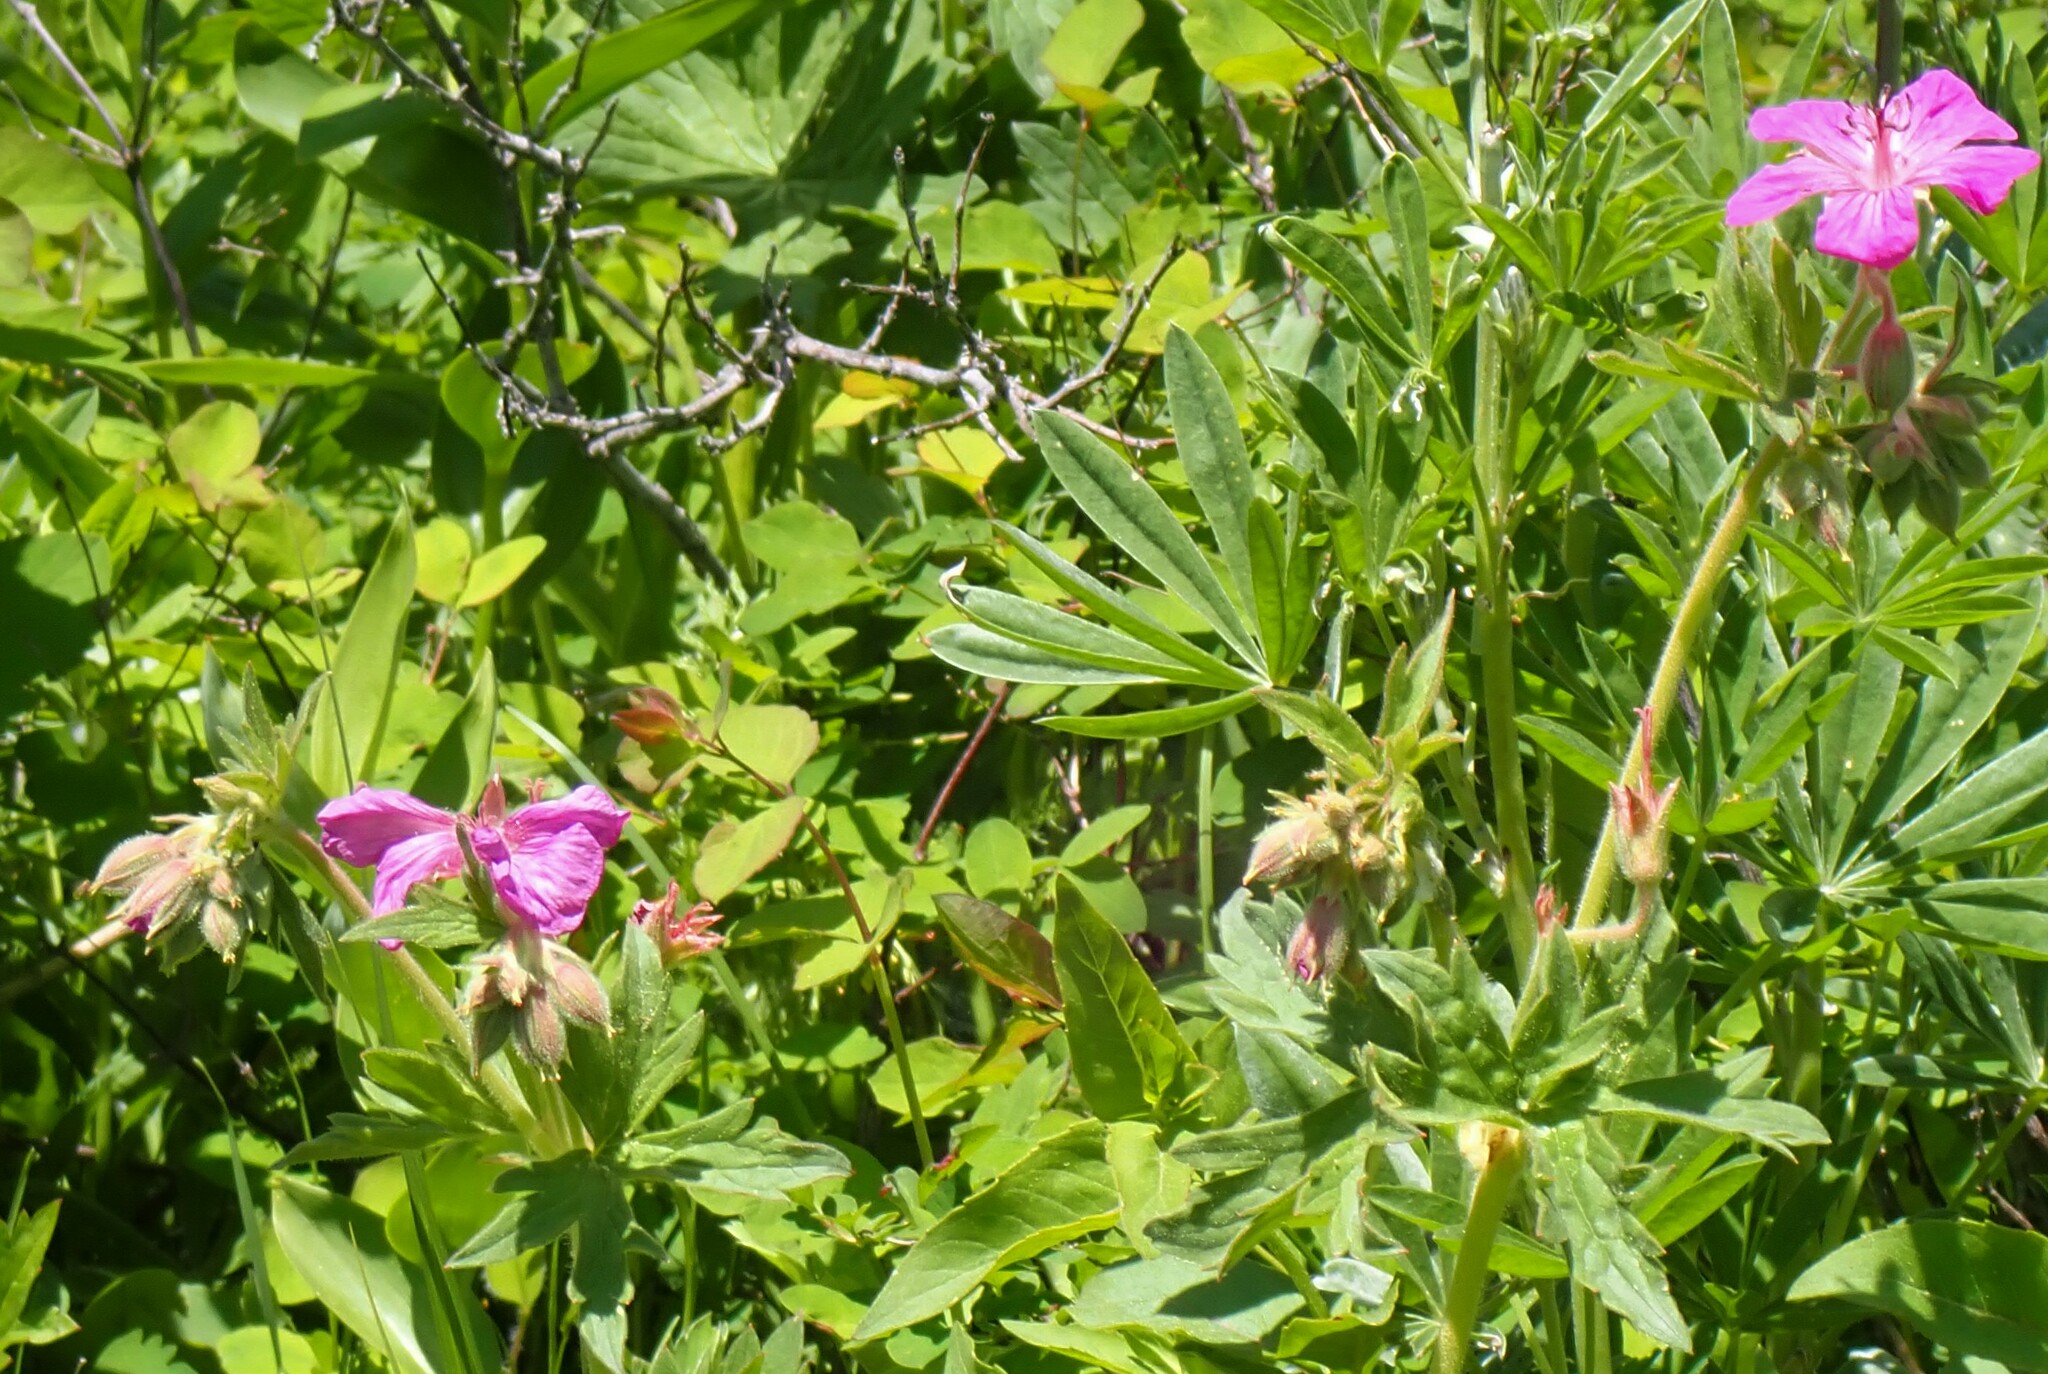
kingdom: Plantae
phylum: Tracheophyta
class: Magnoliopsida
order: Geraniales
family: Geraniaceae
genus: Geranium
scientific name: Geranium viscosissimum
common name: Purple geranium
